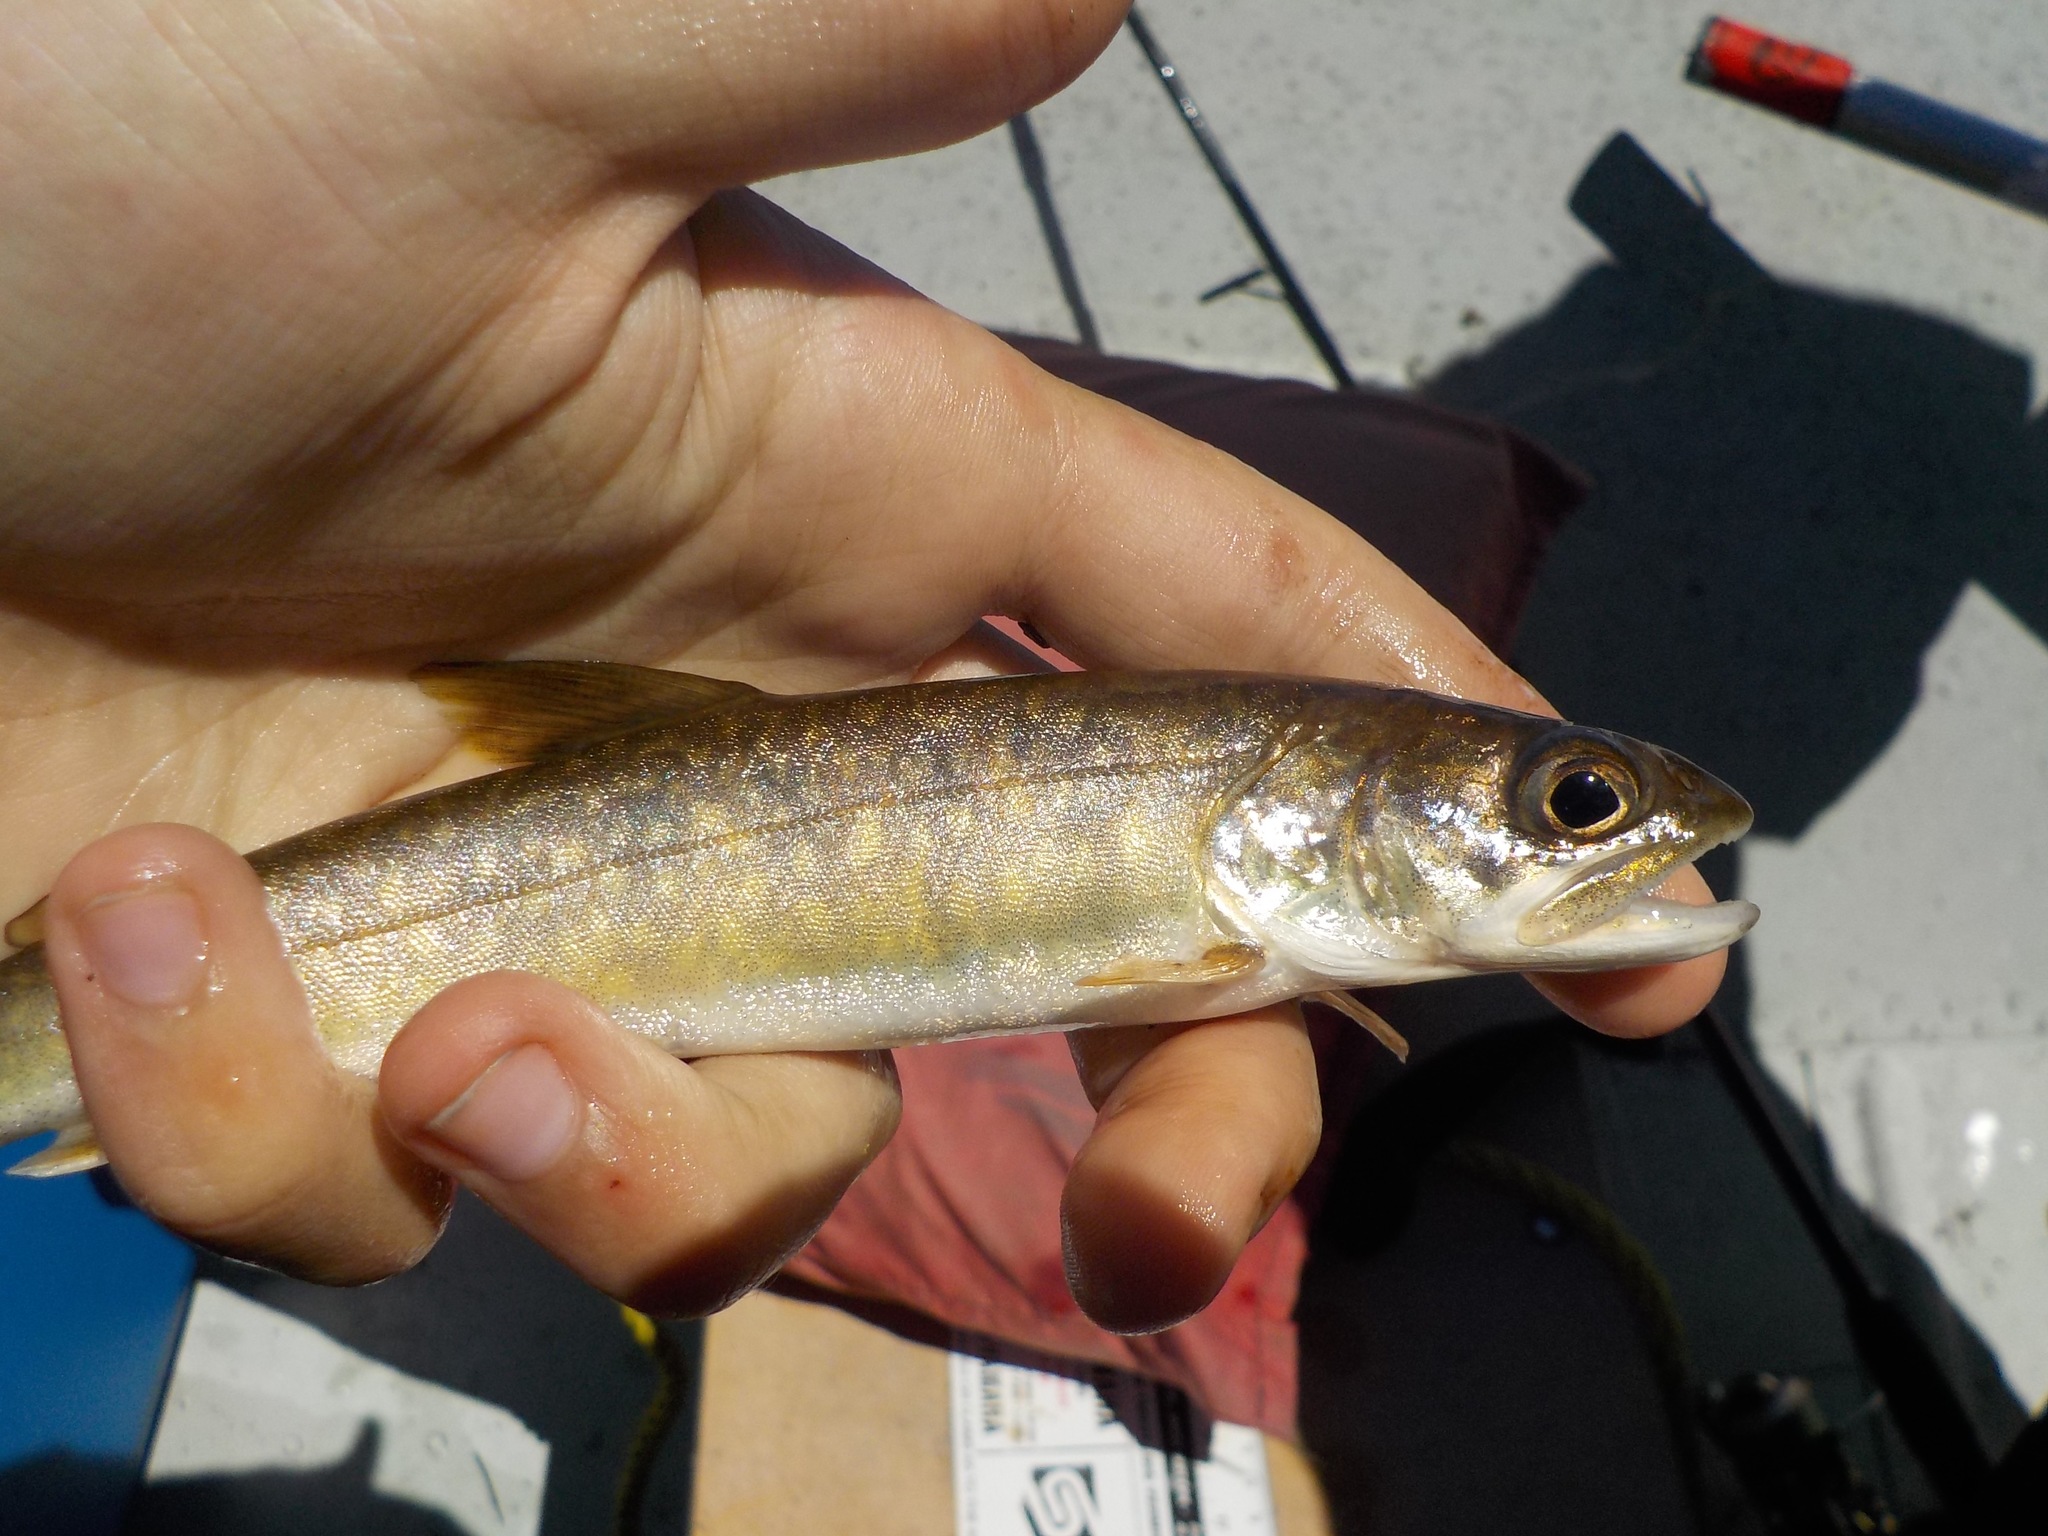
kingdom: Animalia
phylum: Chordata
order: Salmoniformes
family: Salmonidae
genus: Salvelinus
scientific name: Salvelinus namaycush
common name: American lake charr
